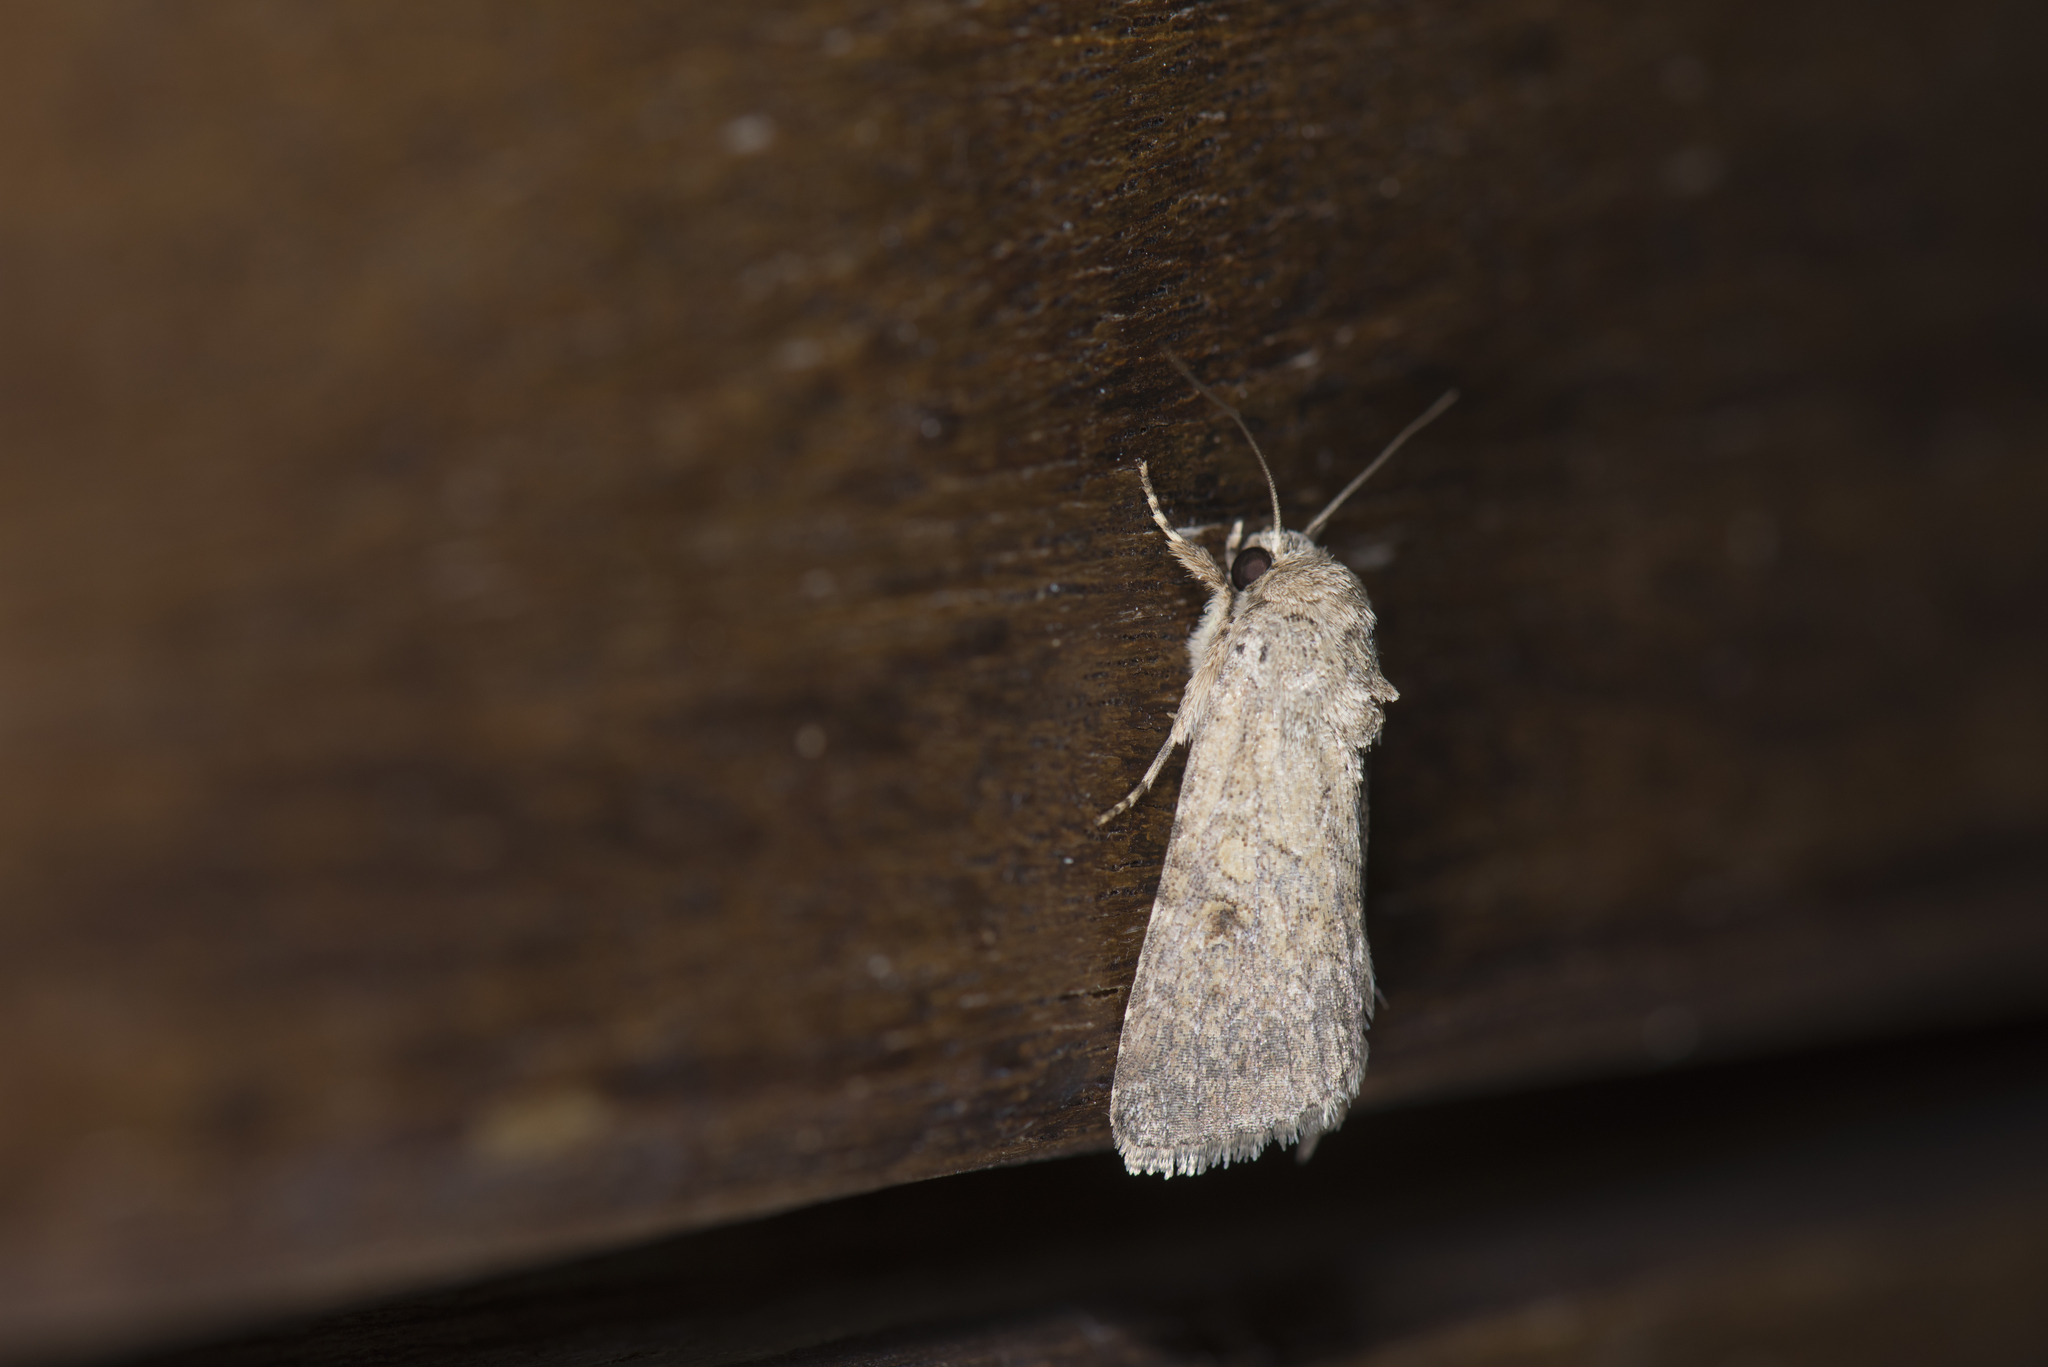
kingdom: Animalia
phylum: Arthropoda
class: Insecta
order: Lepidoptera
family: Noctuidae
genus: Spodoptera
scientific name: Spodoptera pecten
